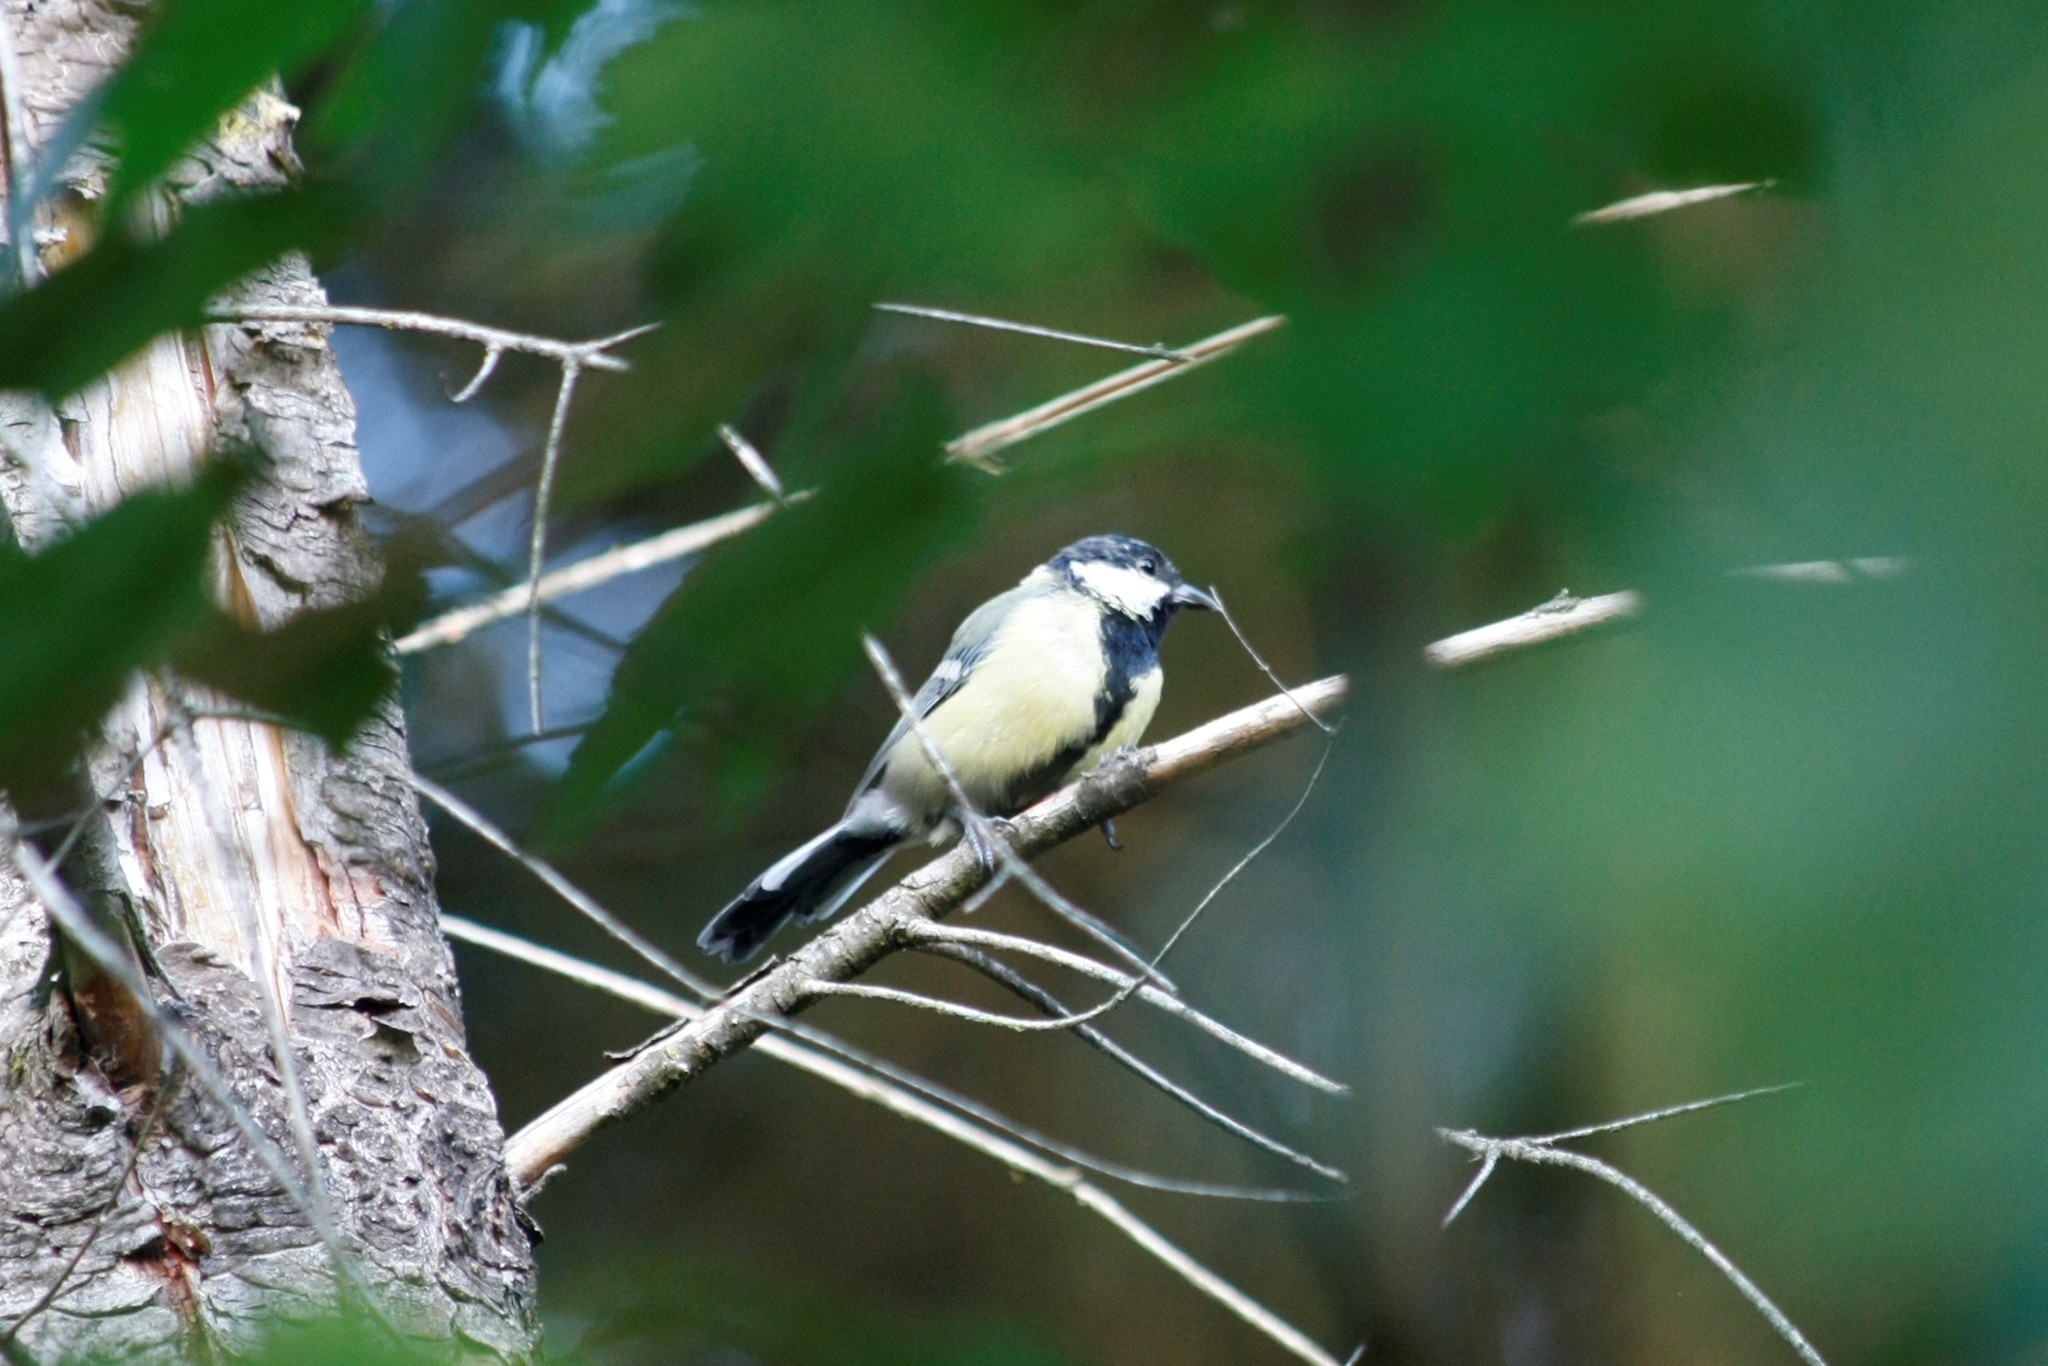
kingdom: Animalia
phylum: Chordata
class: Aves
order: Passeriformes
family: Paridae
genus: Parus
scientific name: Parus major
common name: Great tit
